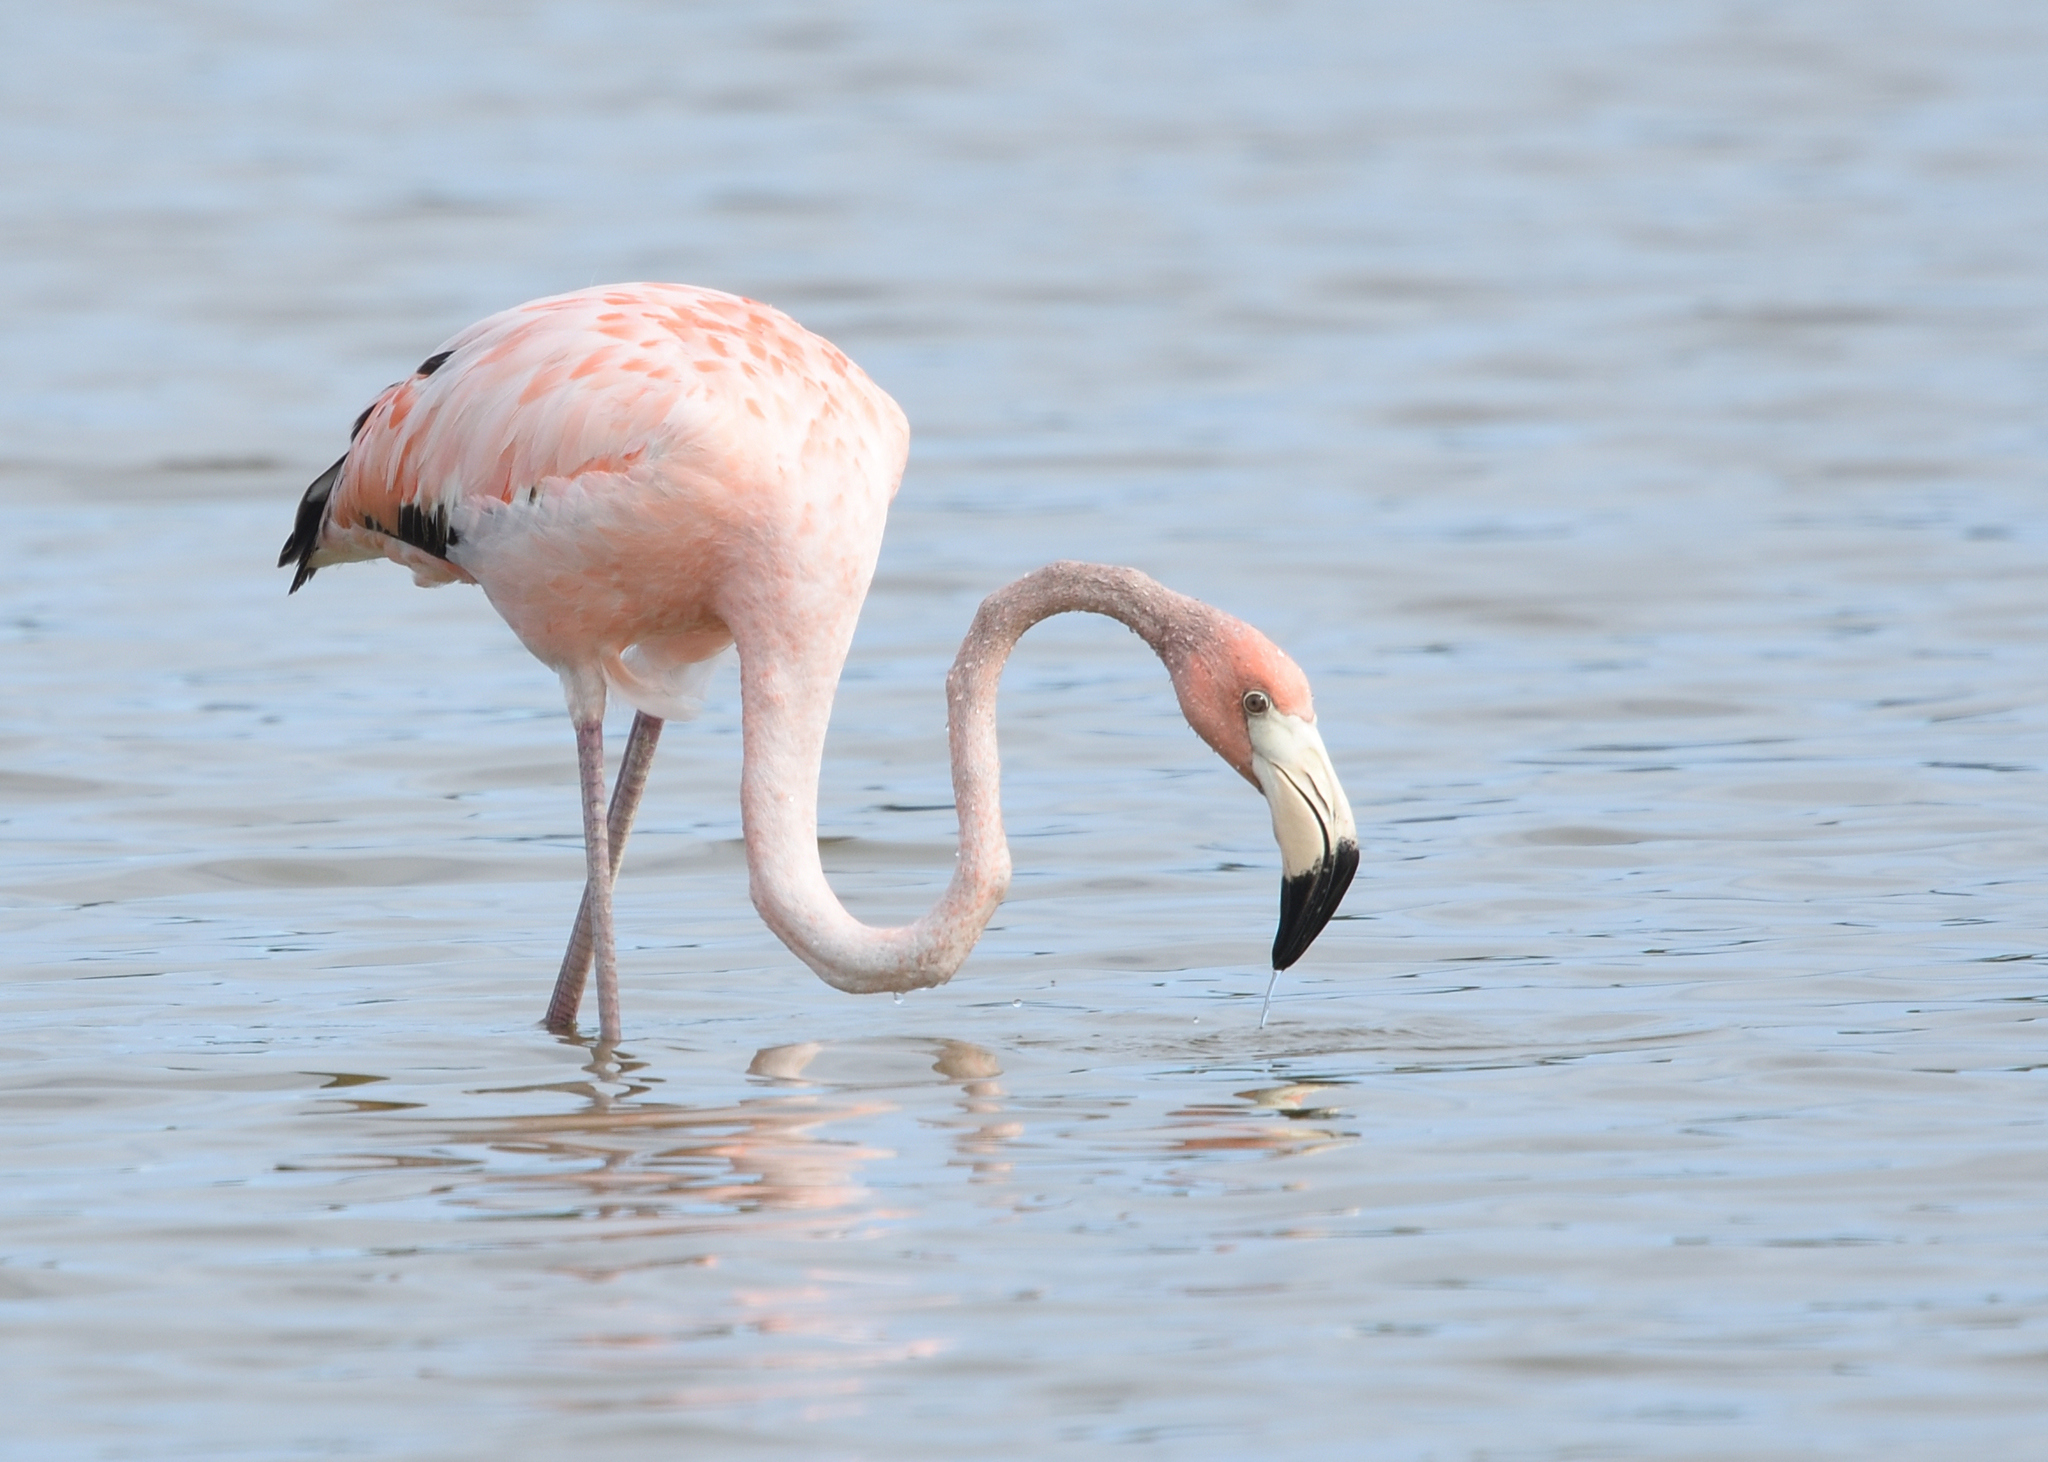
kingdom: Animalia
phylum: Chordata
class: Aves
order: Phoenicopteriformes
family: Phoenicopteridae
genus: Phoenicopterus
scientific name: Phoenicopterus ruber
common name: American flamingo
